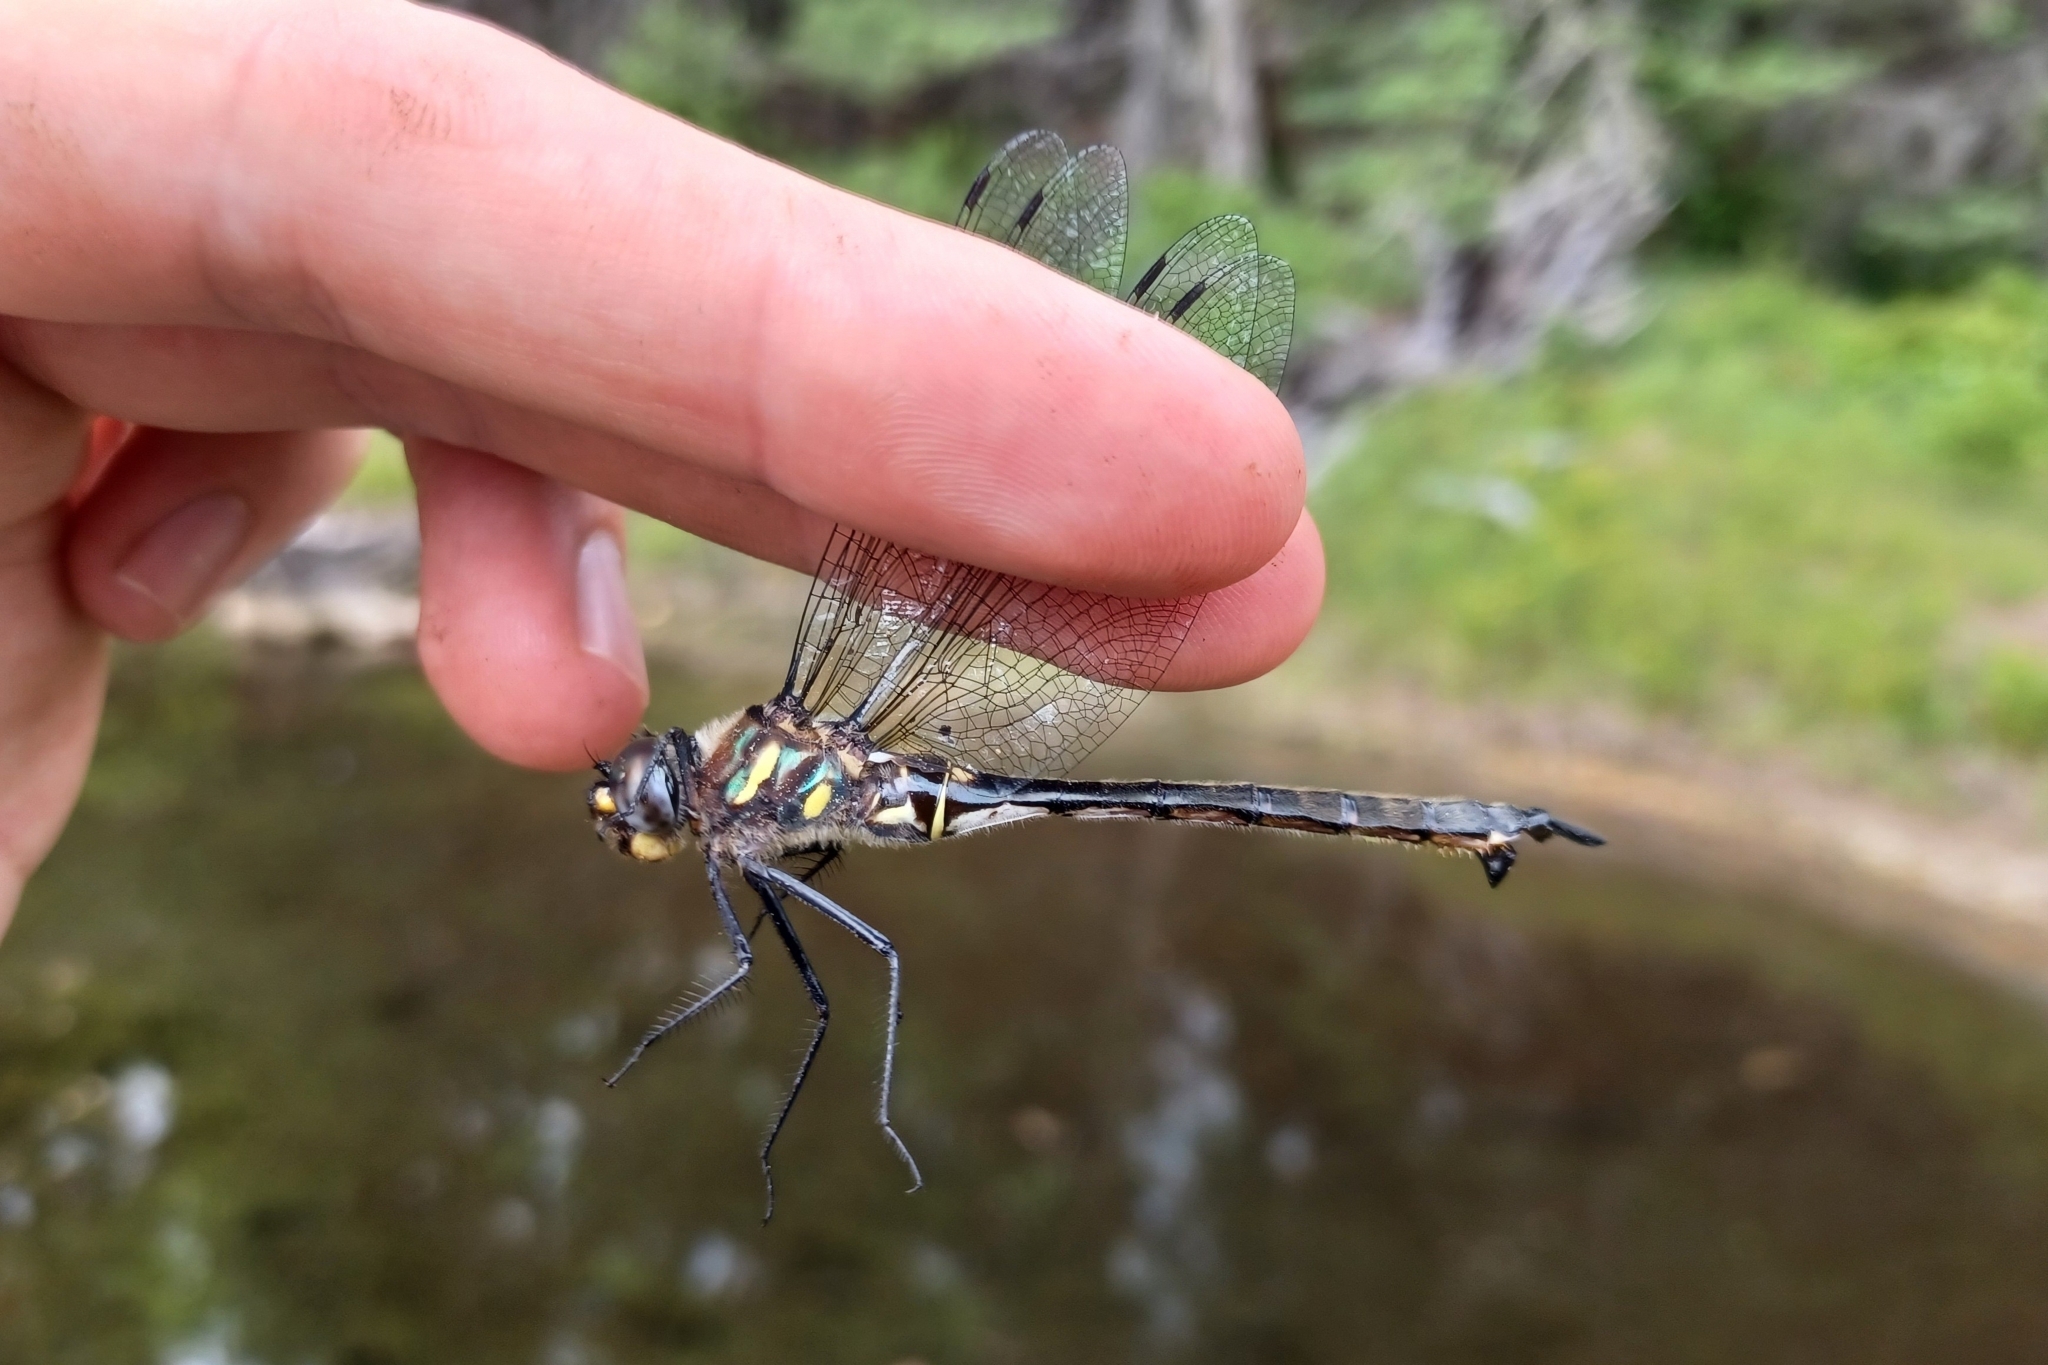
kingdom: Animalia
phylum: Arthropoda
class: Insecta
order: Odonata
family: Corduliidae
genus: Somatochlora
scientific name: Somatochlora elongata
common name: Ski-tipped emerald
